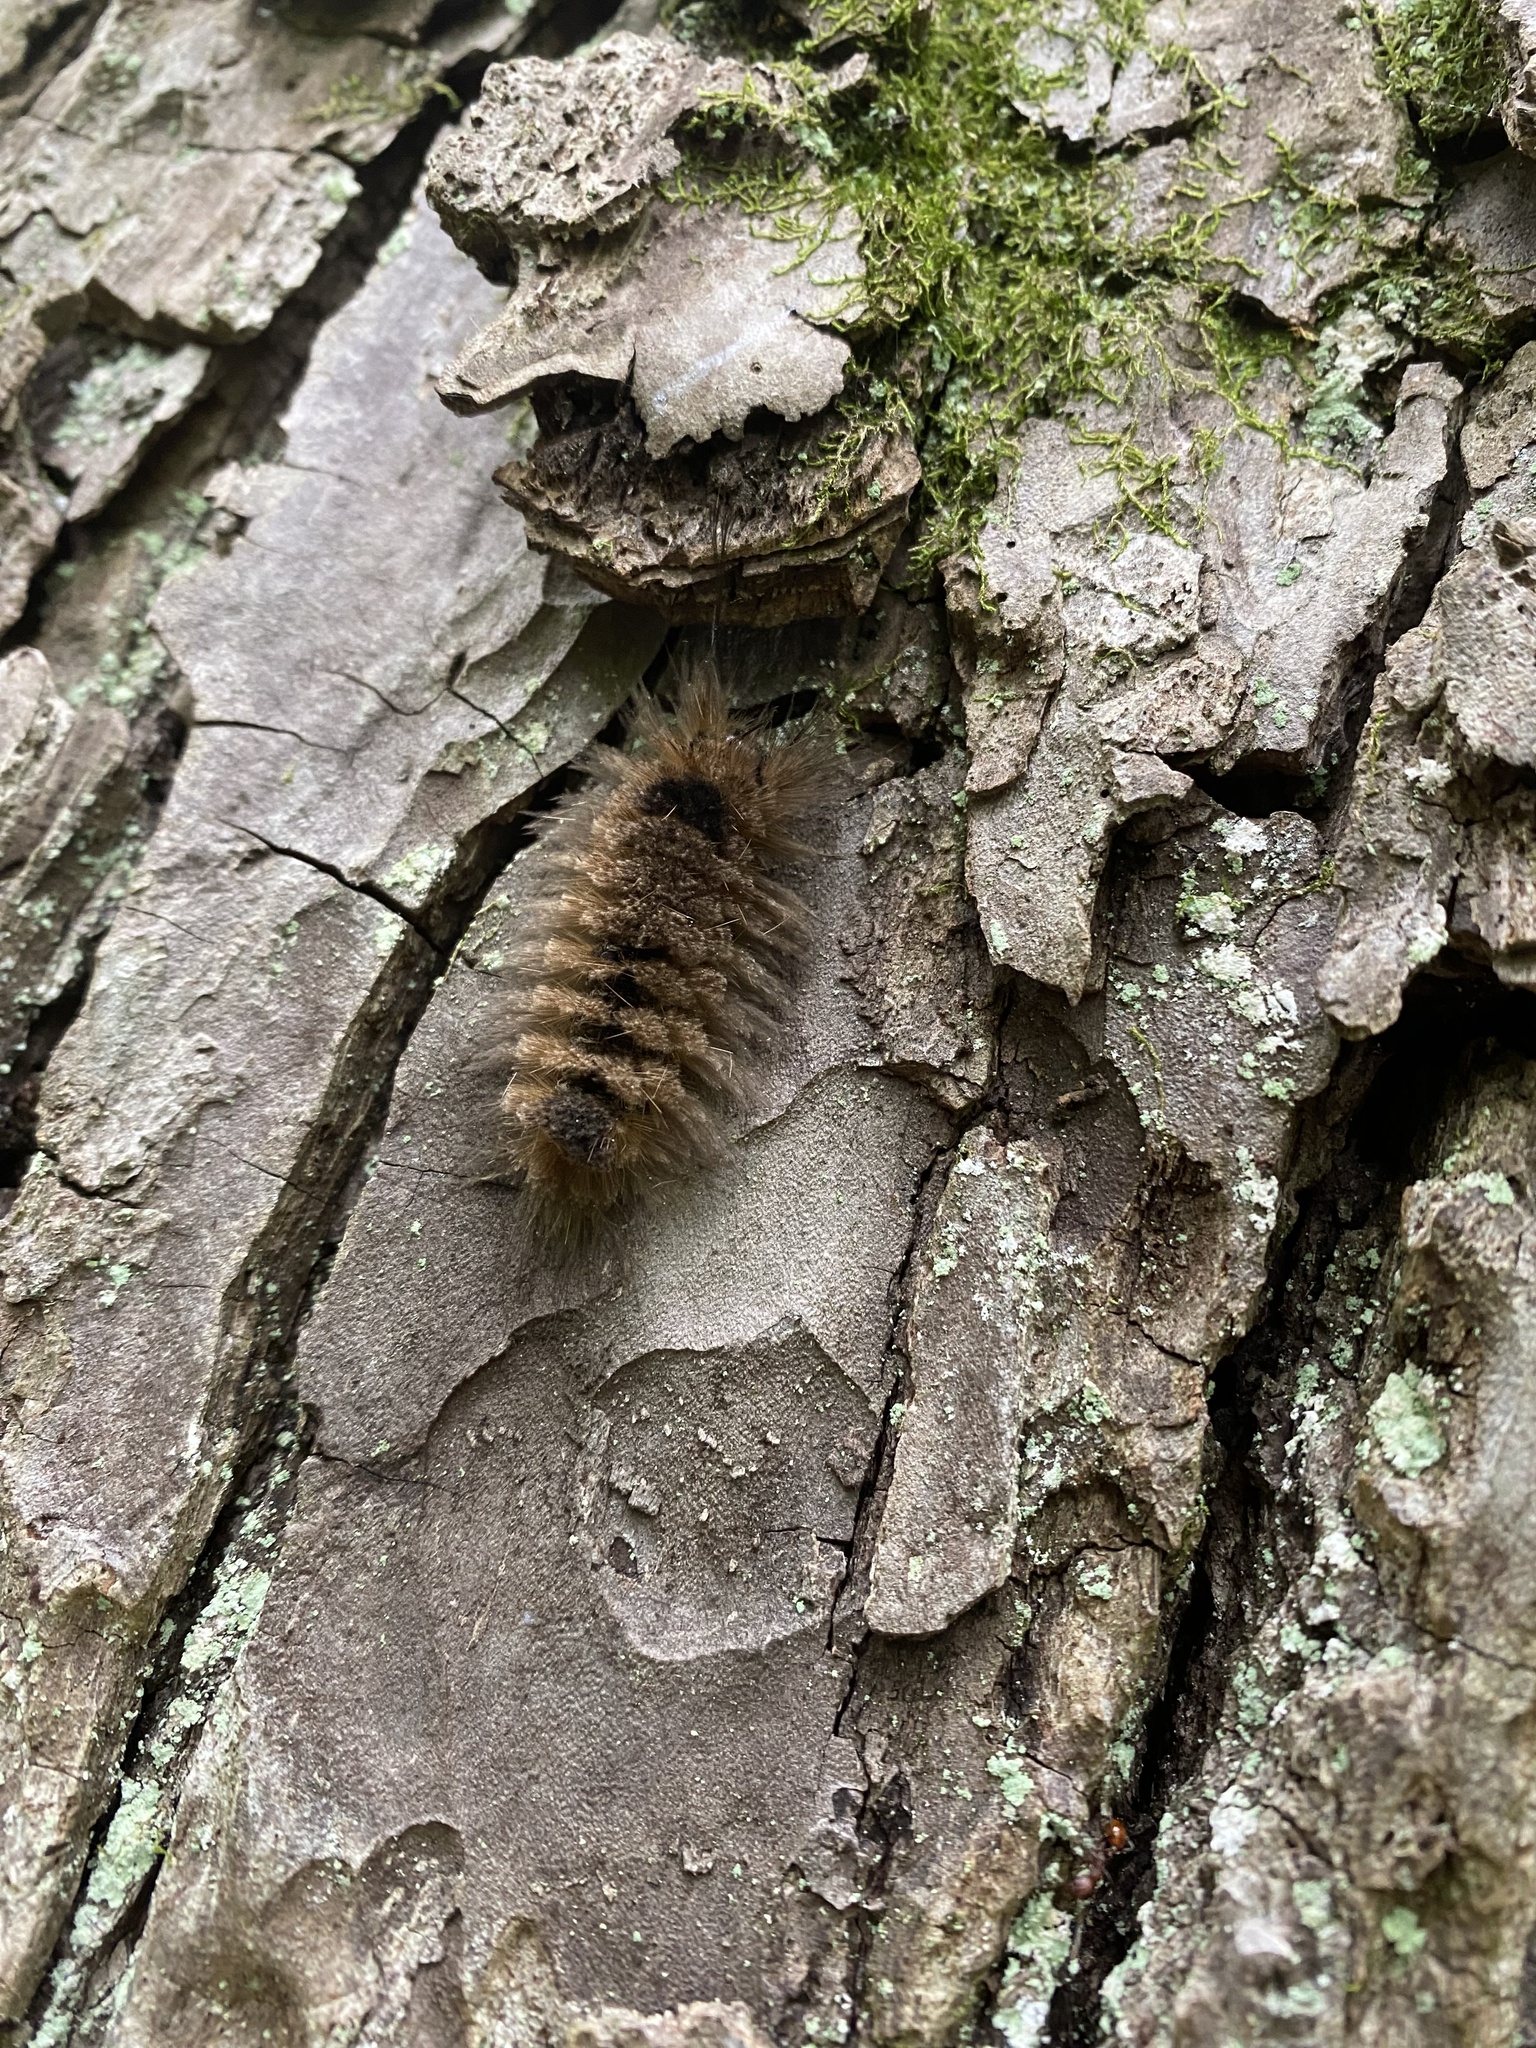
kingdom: Animalia
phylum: Arthropoda
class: Insecta
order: Lepidoptera
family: Erebidae
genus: Dasychira
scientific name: Dasychira obliquata
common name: Streaked tussock moth
